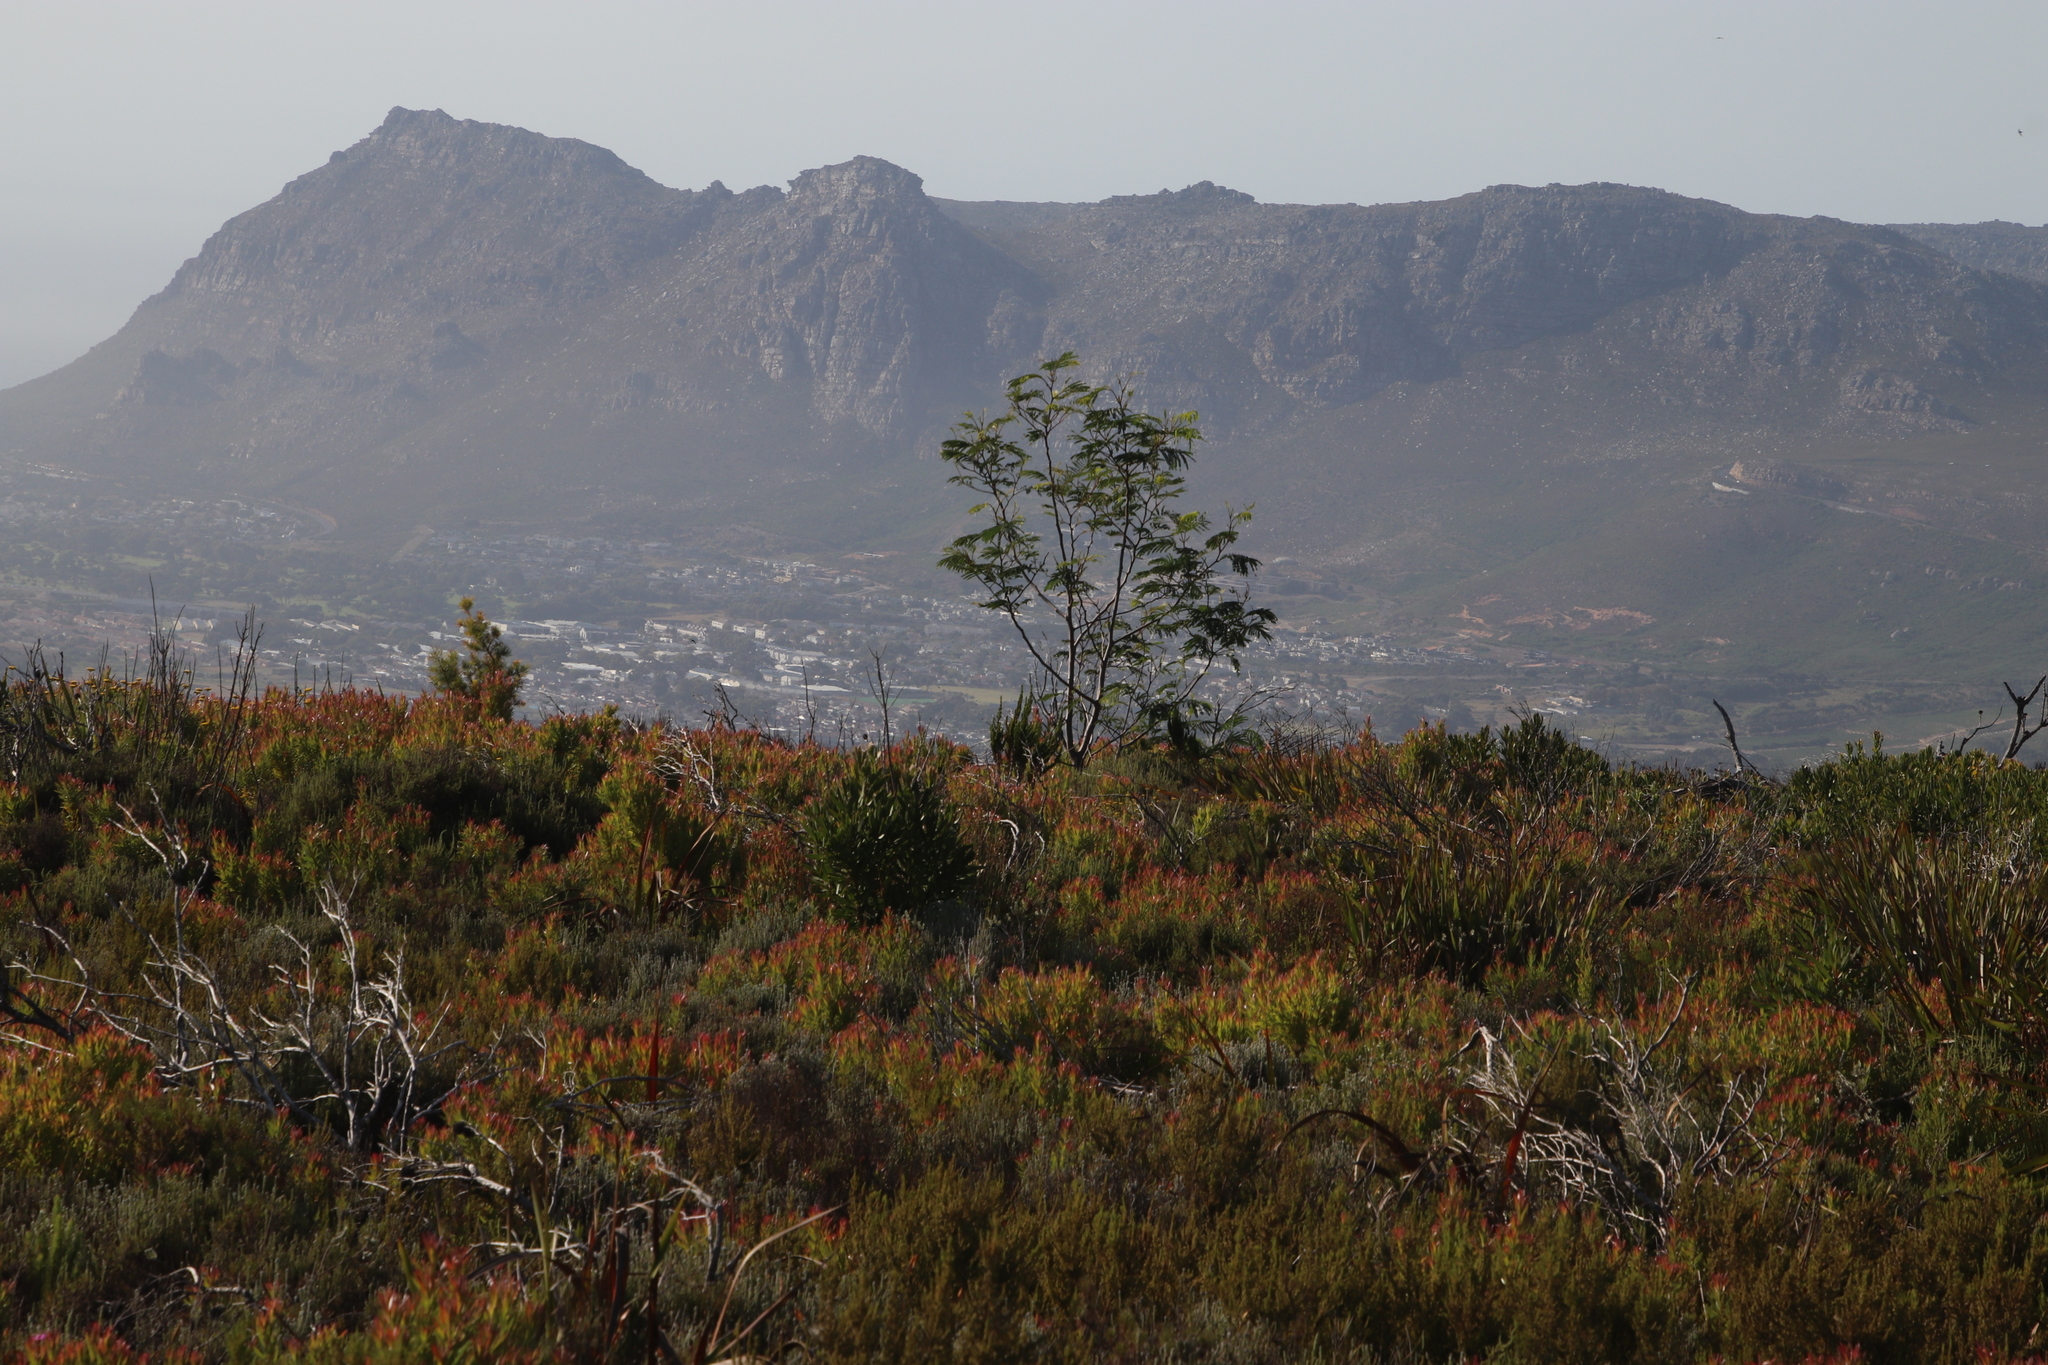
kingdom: Plantae
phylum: Tracheophyta
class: Magnoliopsida
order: Fabales
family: Fabaceae
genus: Paraserianthes
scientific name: Paraserianthes lophantha
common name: Plume albizia
